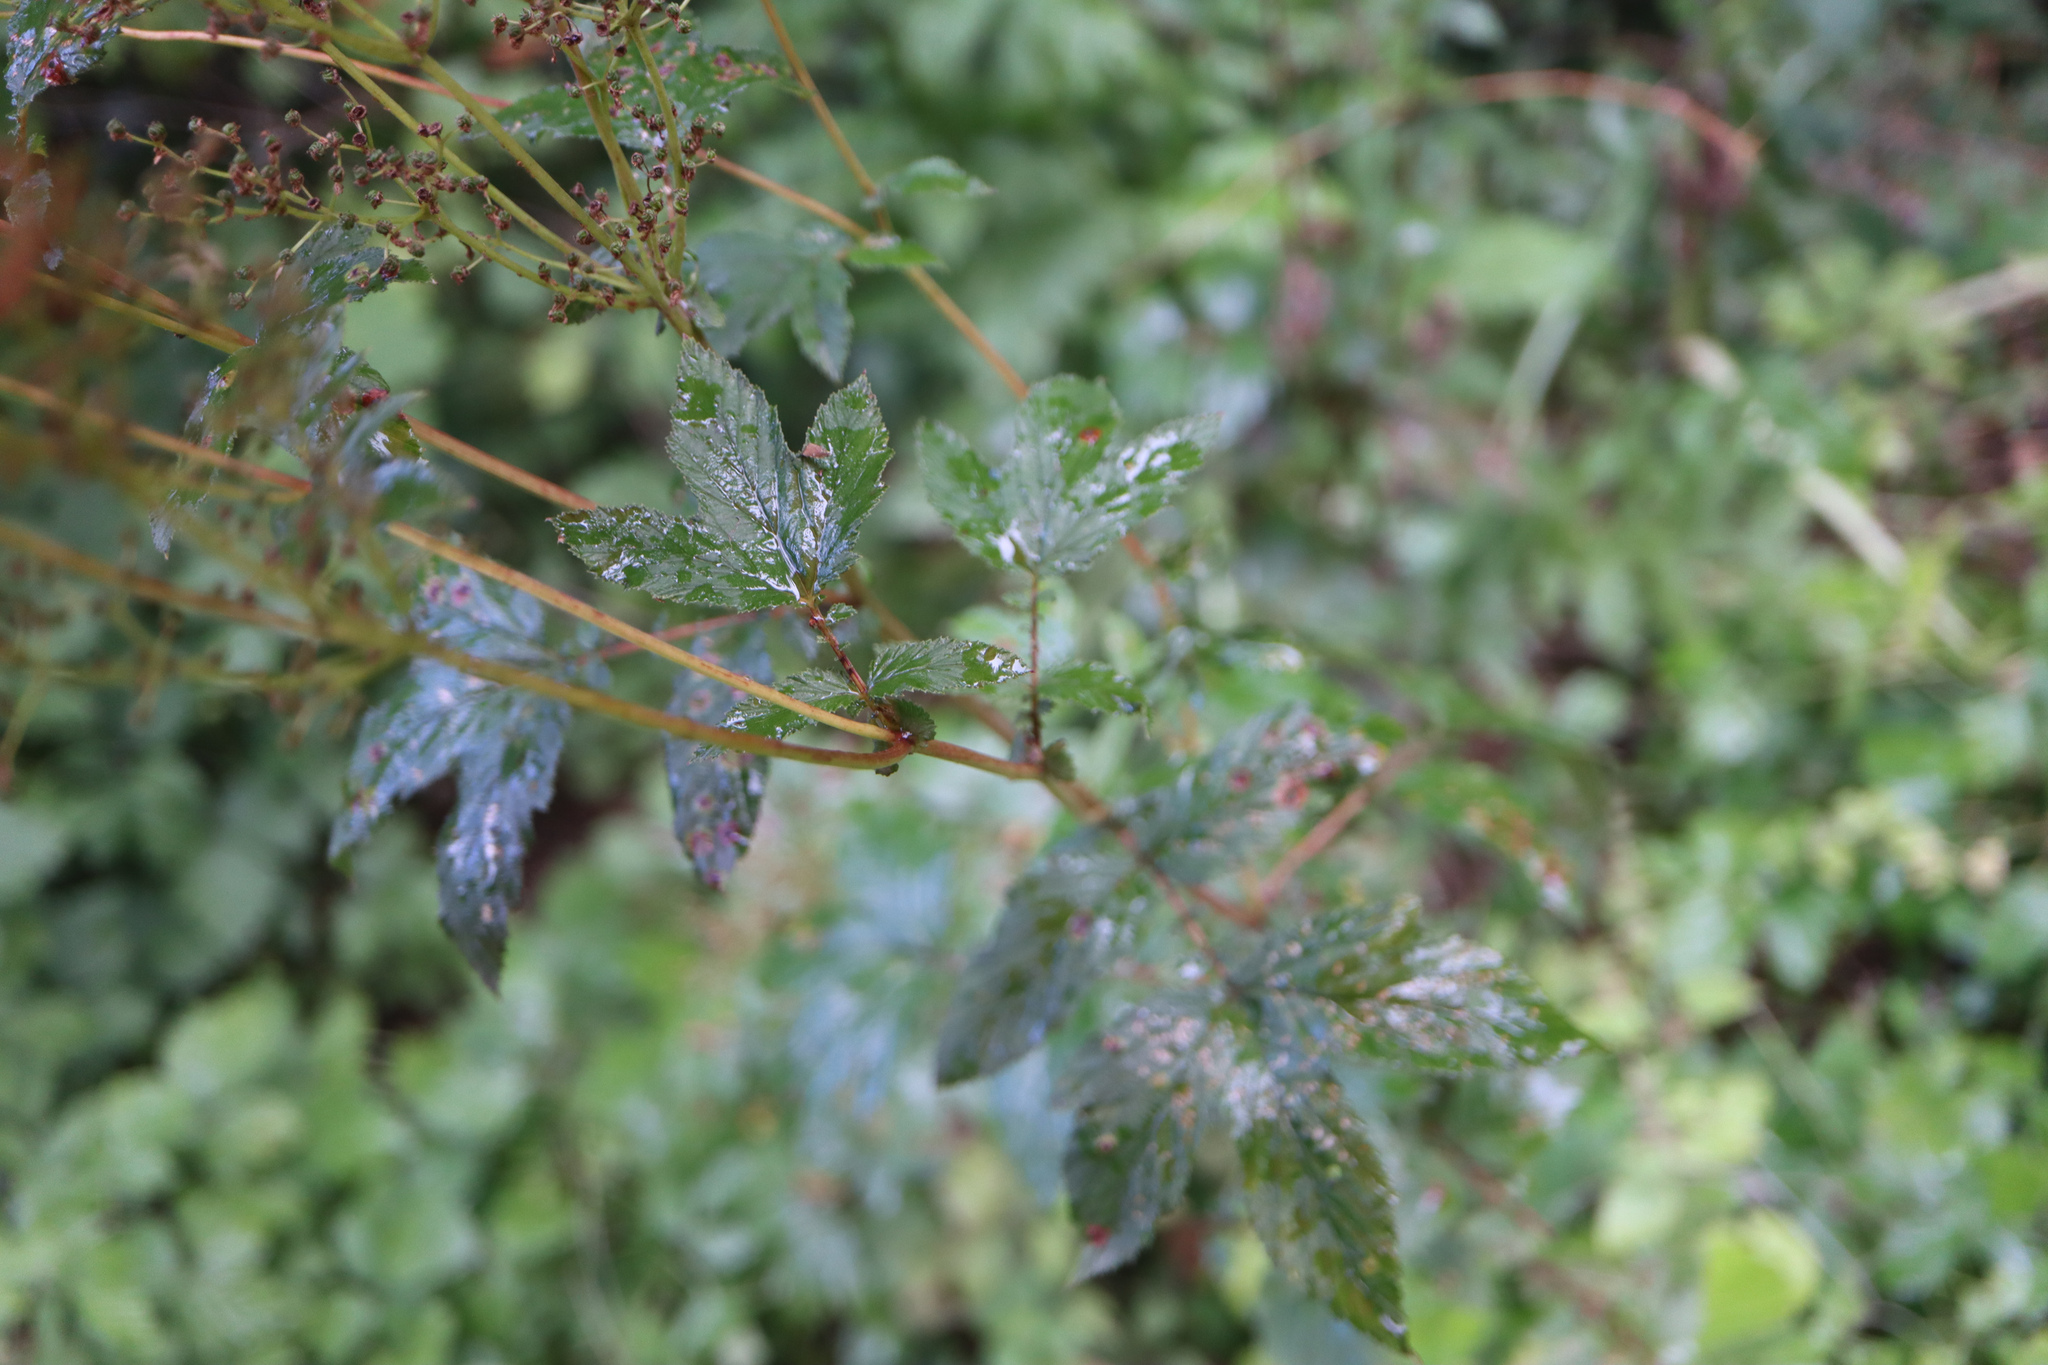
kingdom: Plantae
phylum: Tracheophyta
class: Magnoliopsida
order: Rosales
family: Rosaceae
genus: Filipendula
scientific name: Filipendula ulmaria
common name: Meadowsweet
